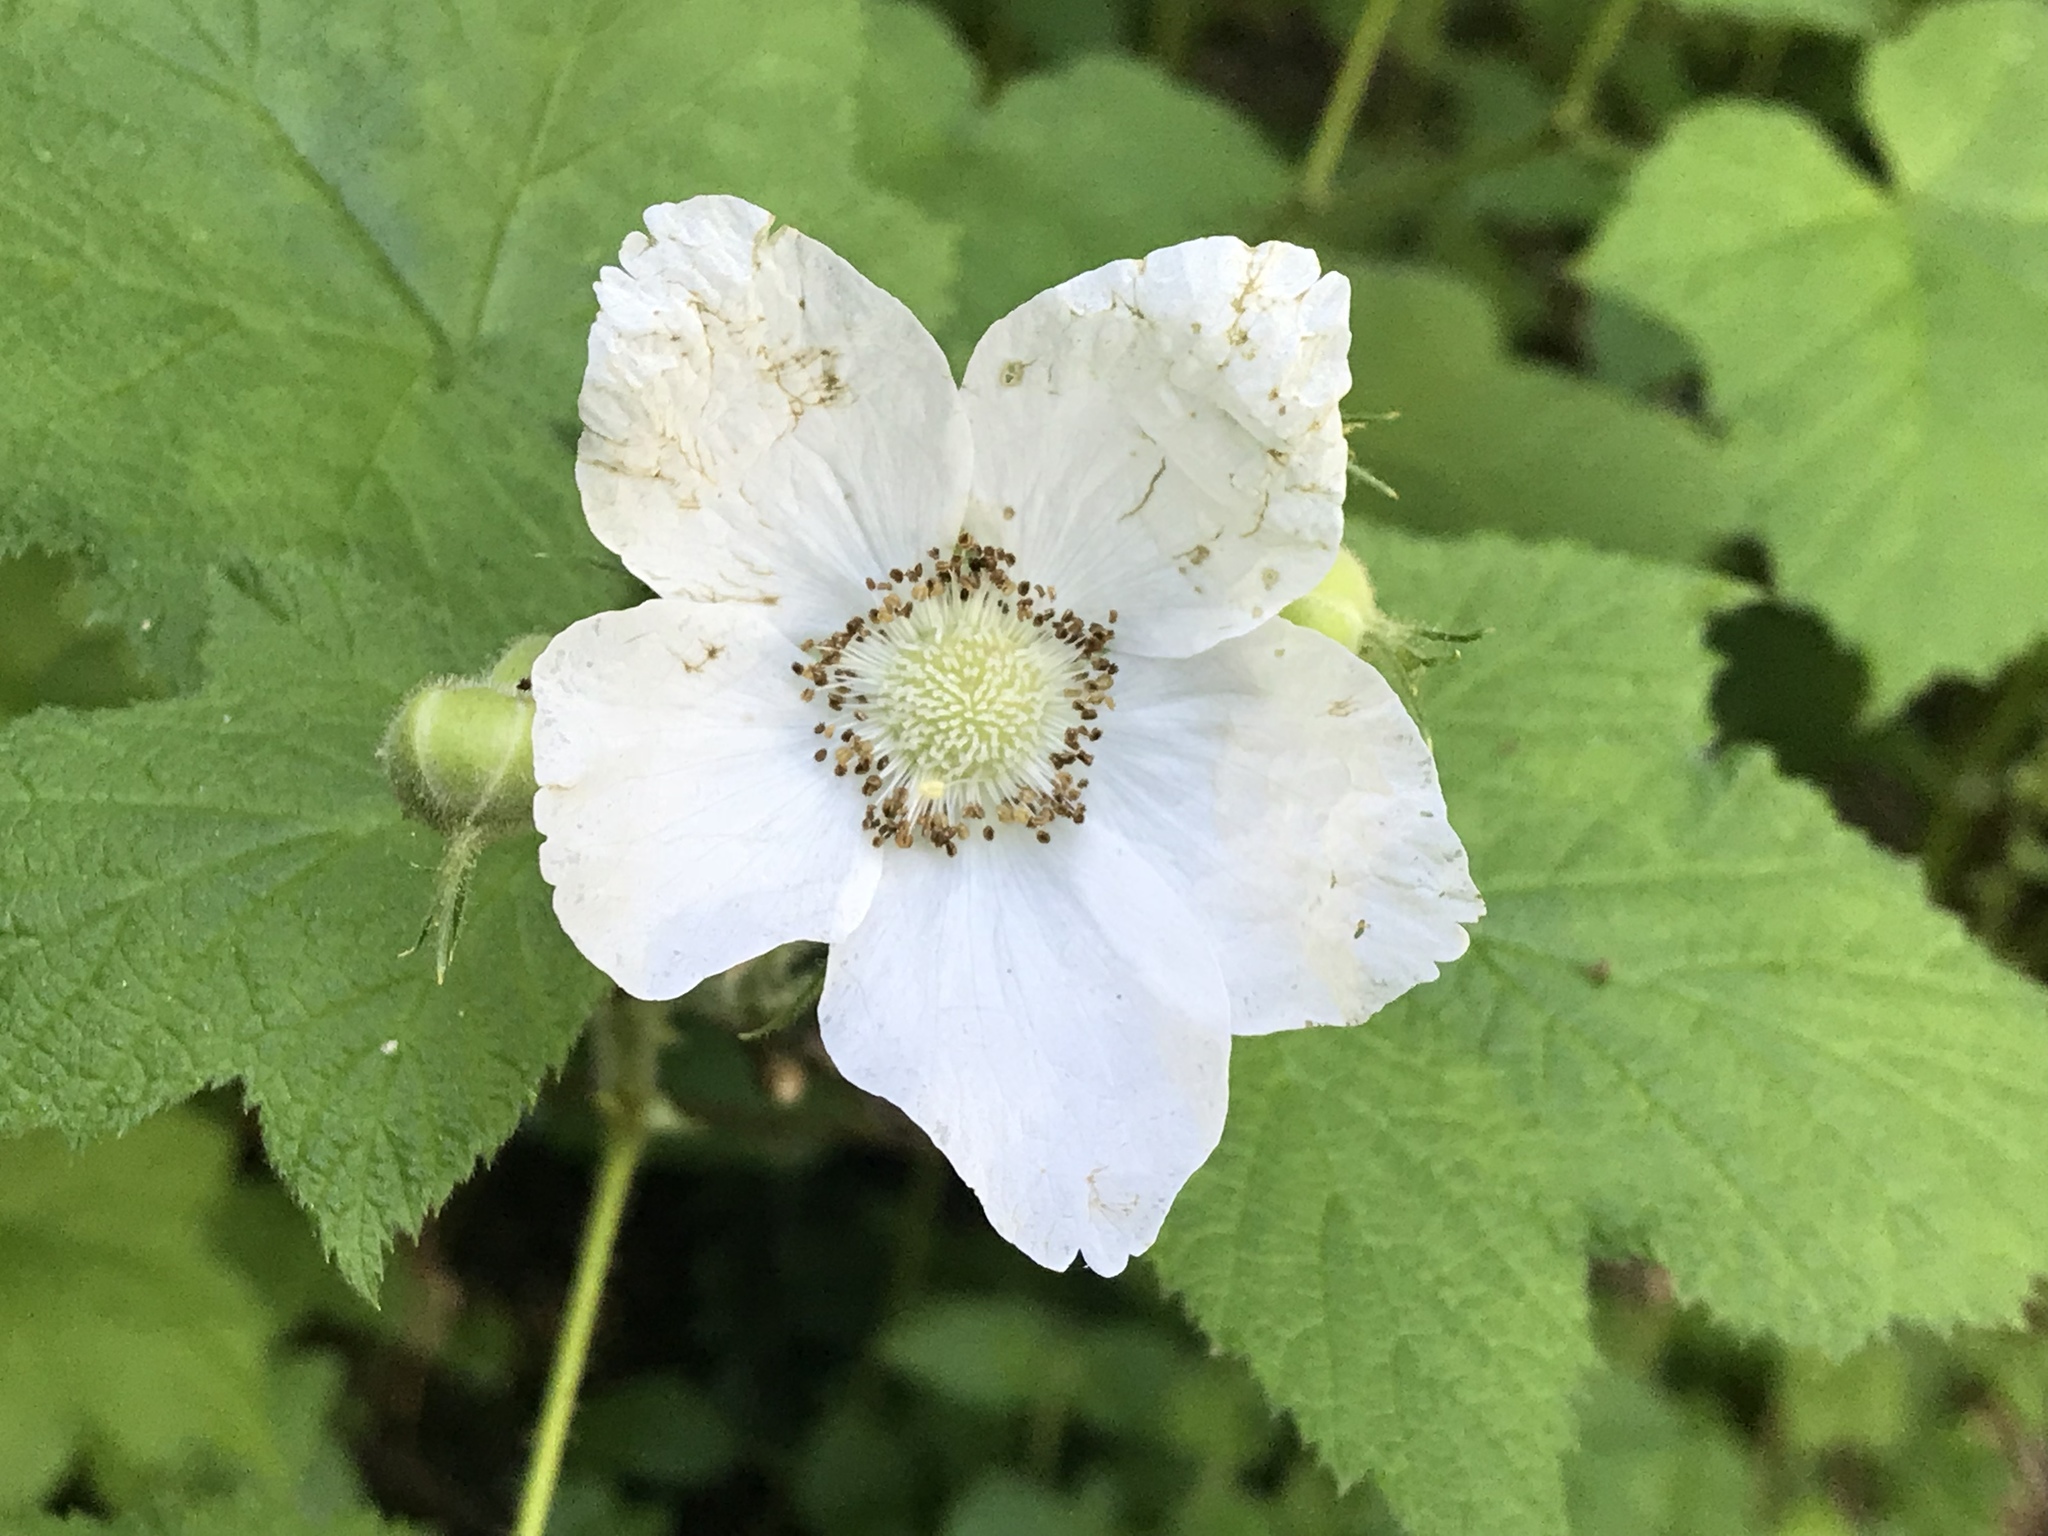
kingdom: Plantae
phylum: Tracheophyta
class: Magnoliopsida
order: Rosales
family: Rosaceae
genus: Rubus
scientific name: Rubus parviflorus
